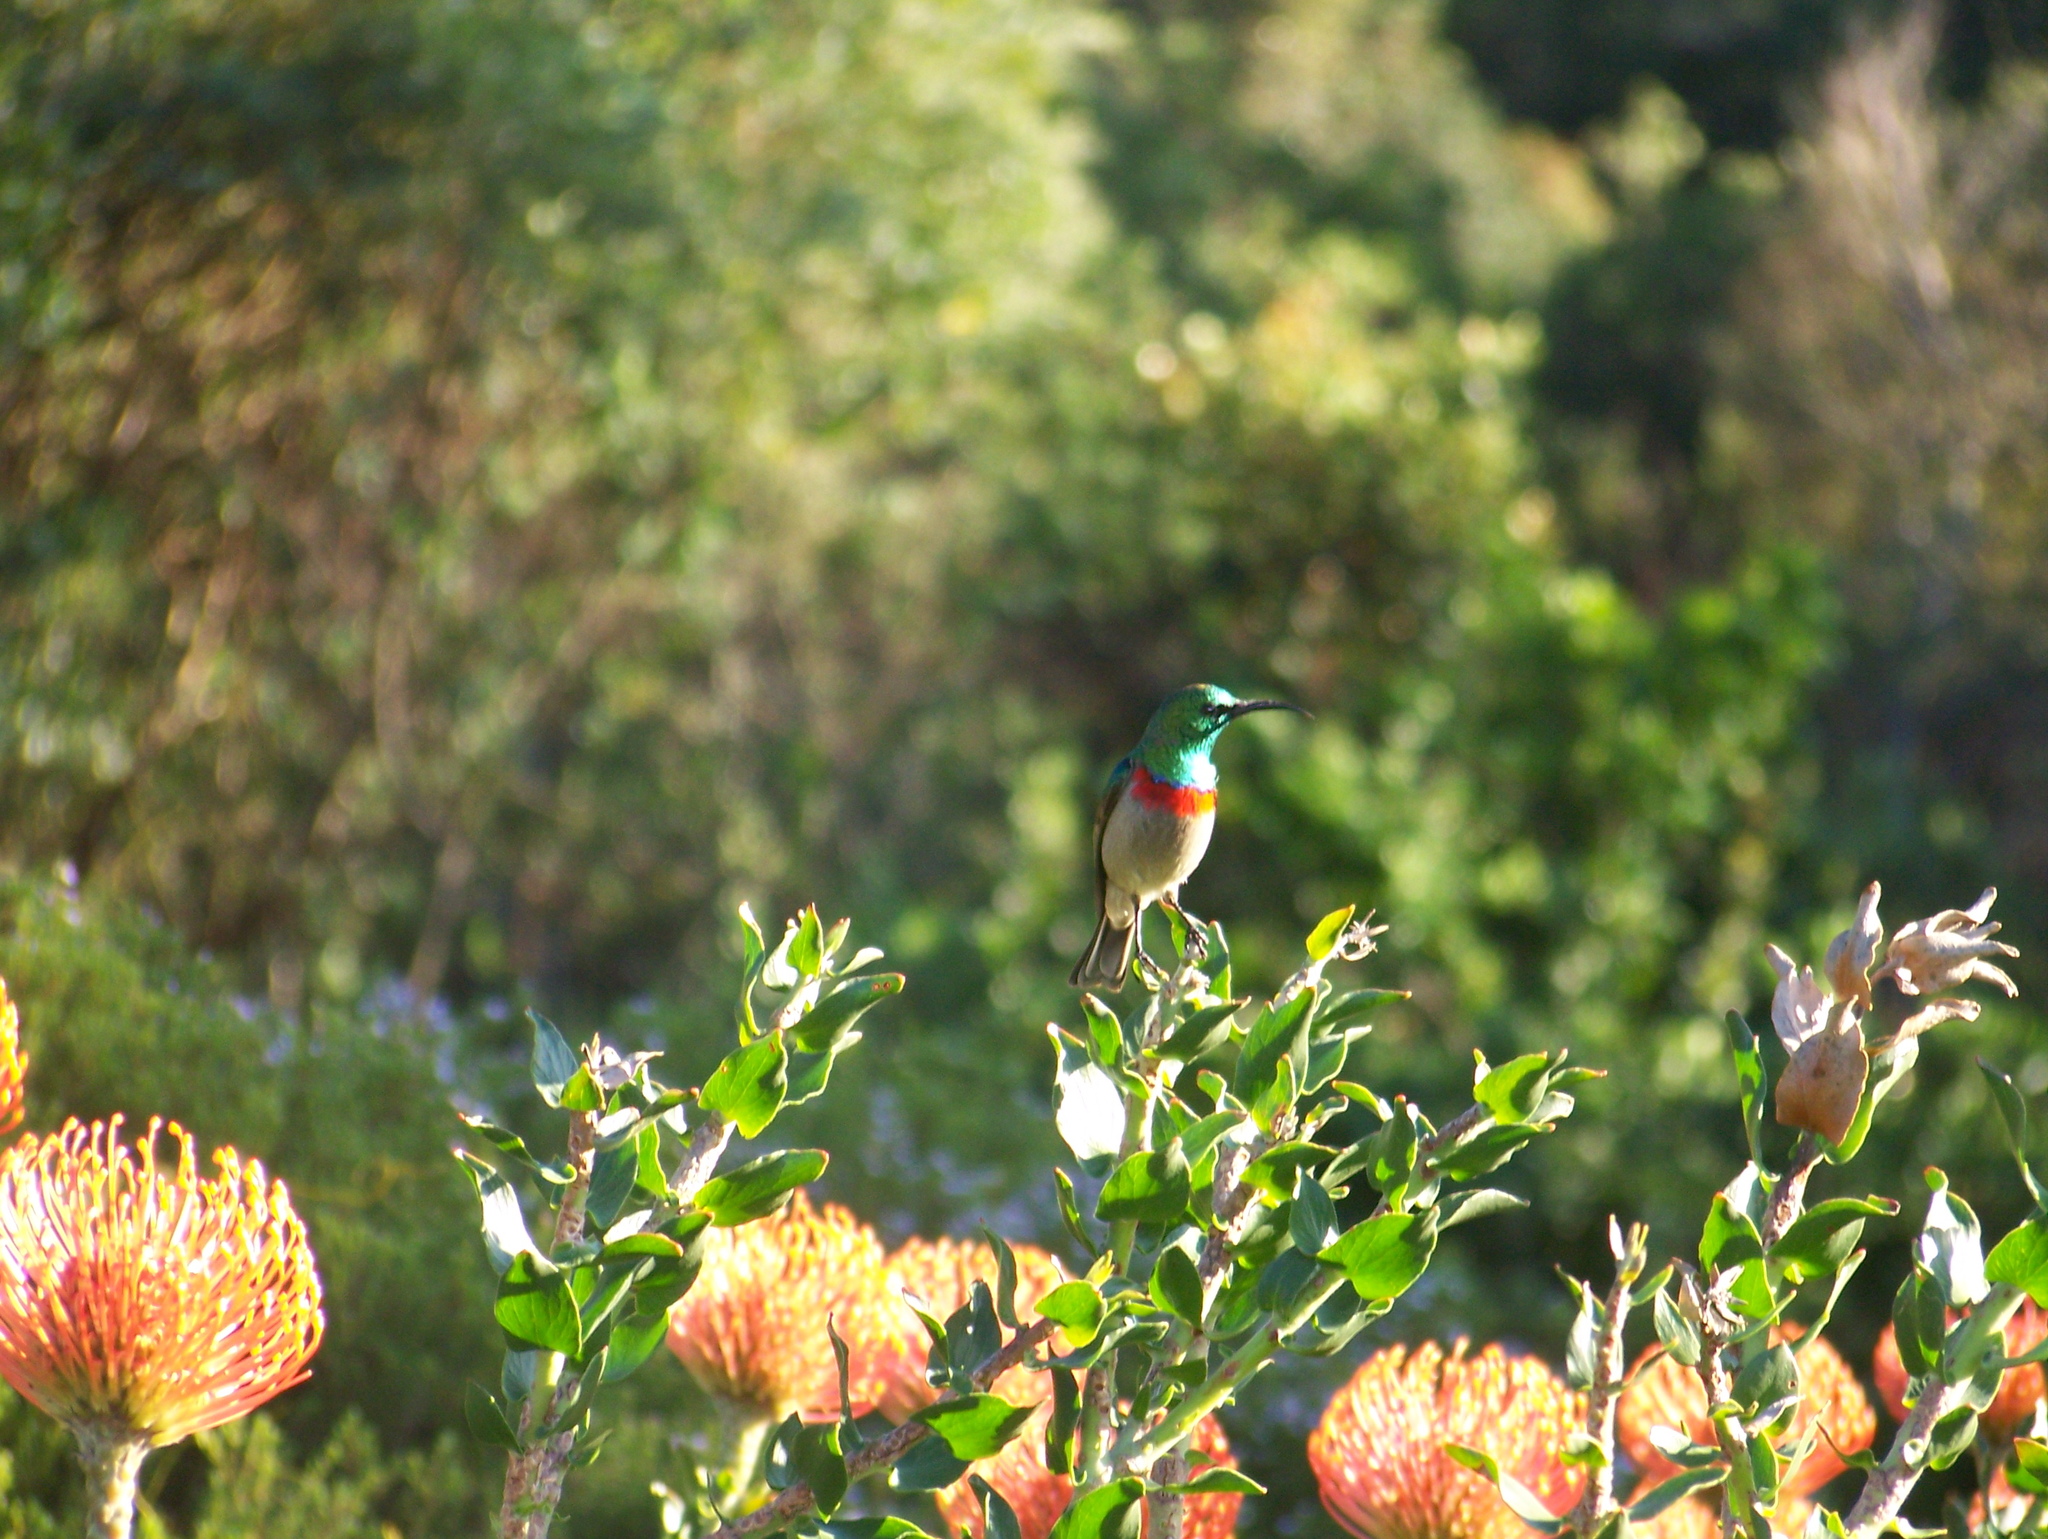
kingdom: Animalia
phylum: Chordata
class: Aves
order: Passeriformes
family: Nectariniidae
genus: Cinnyris
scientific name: Cinnyris chalybeus
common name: Southern double-collared sunbird
